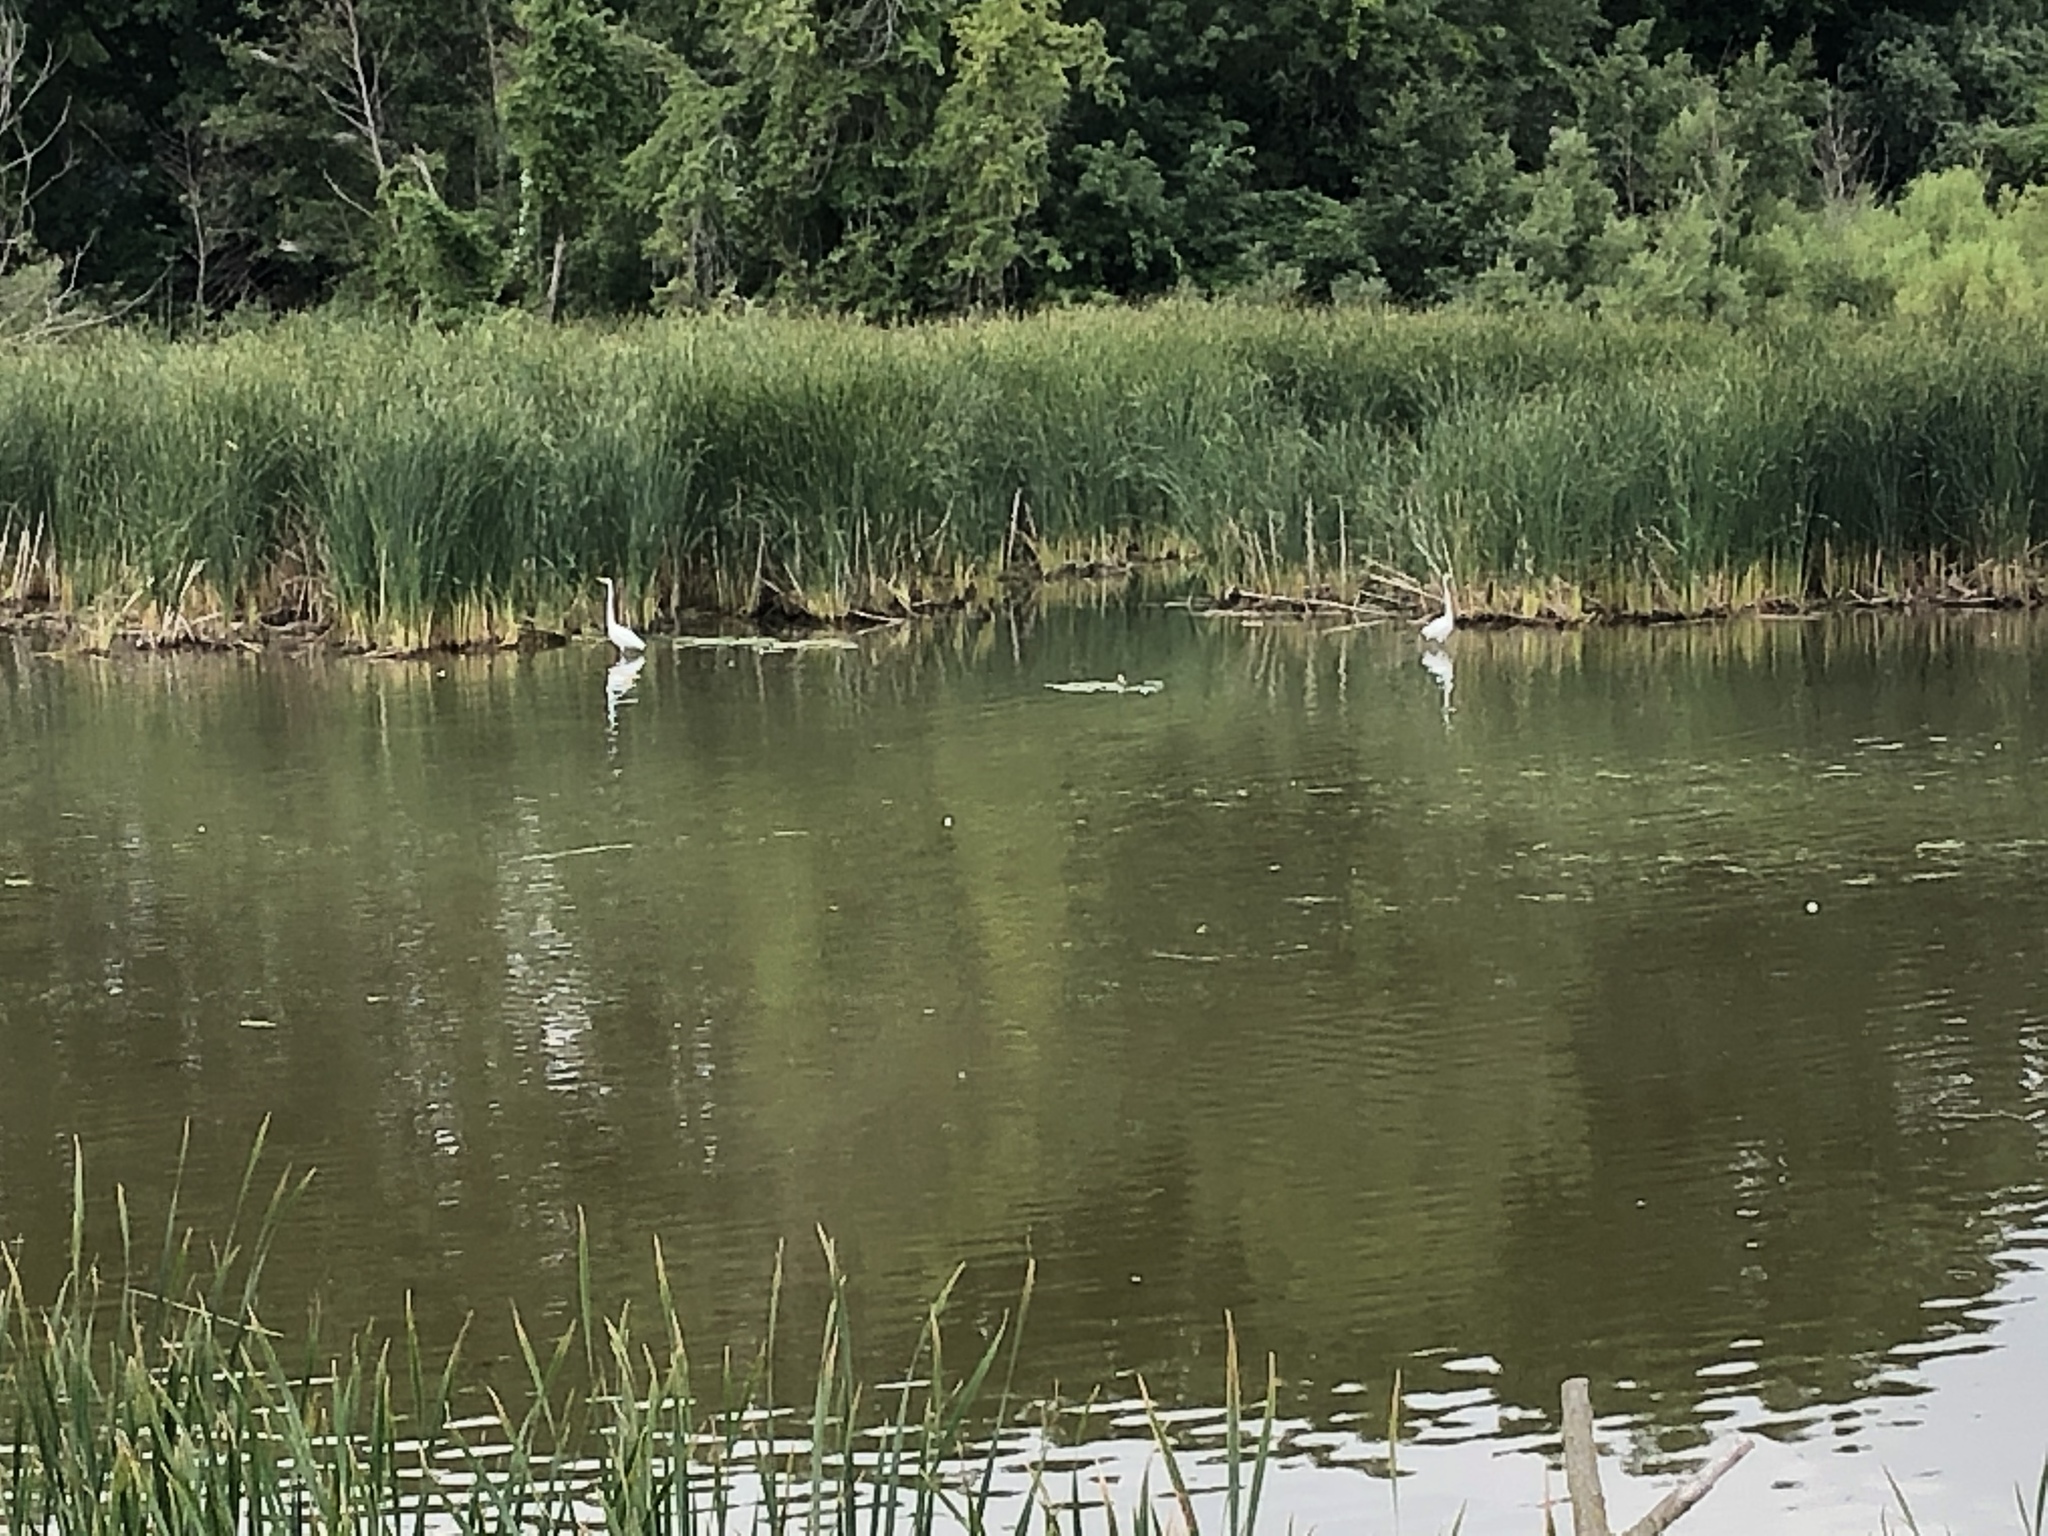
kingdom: Animalia
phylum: Chordata
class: Aves
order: Pelecaniformes
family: Ardeidae
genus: Ardea
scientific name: Ardea alba
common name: Great egret
